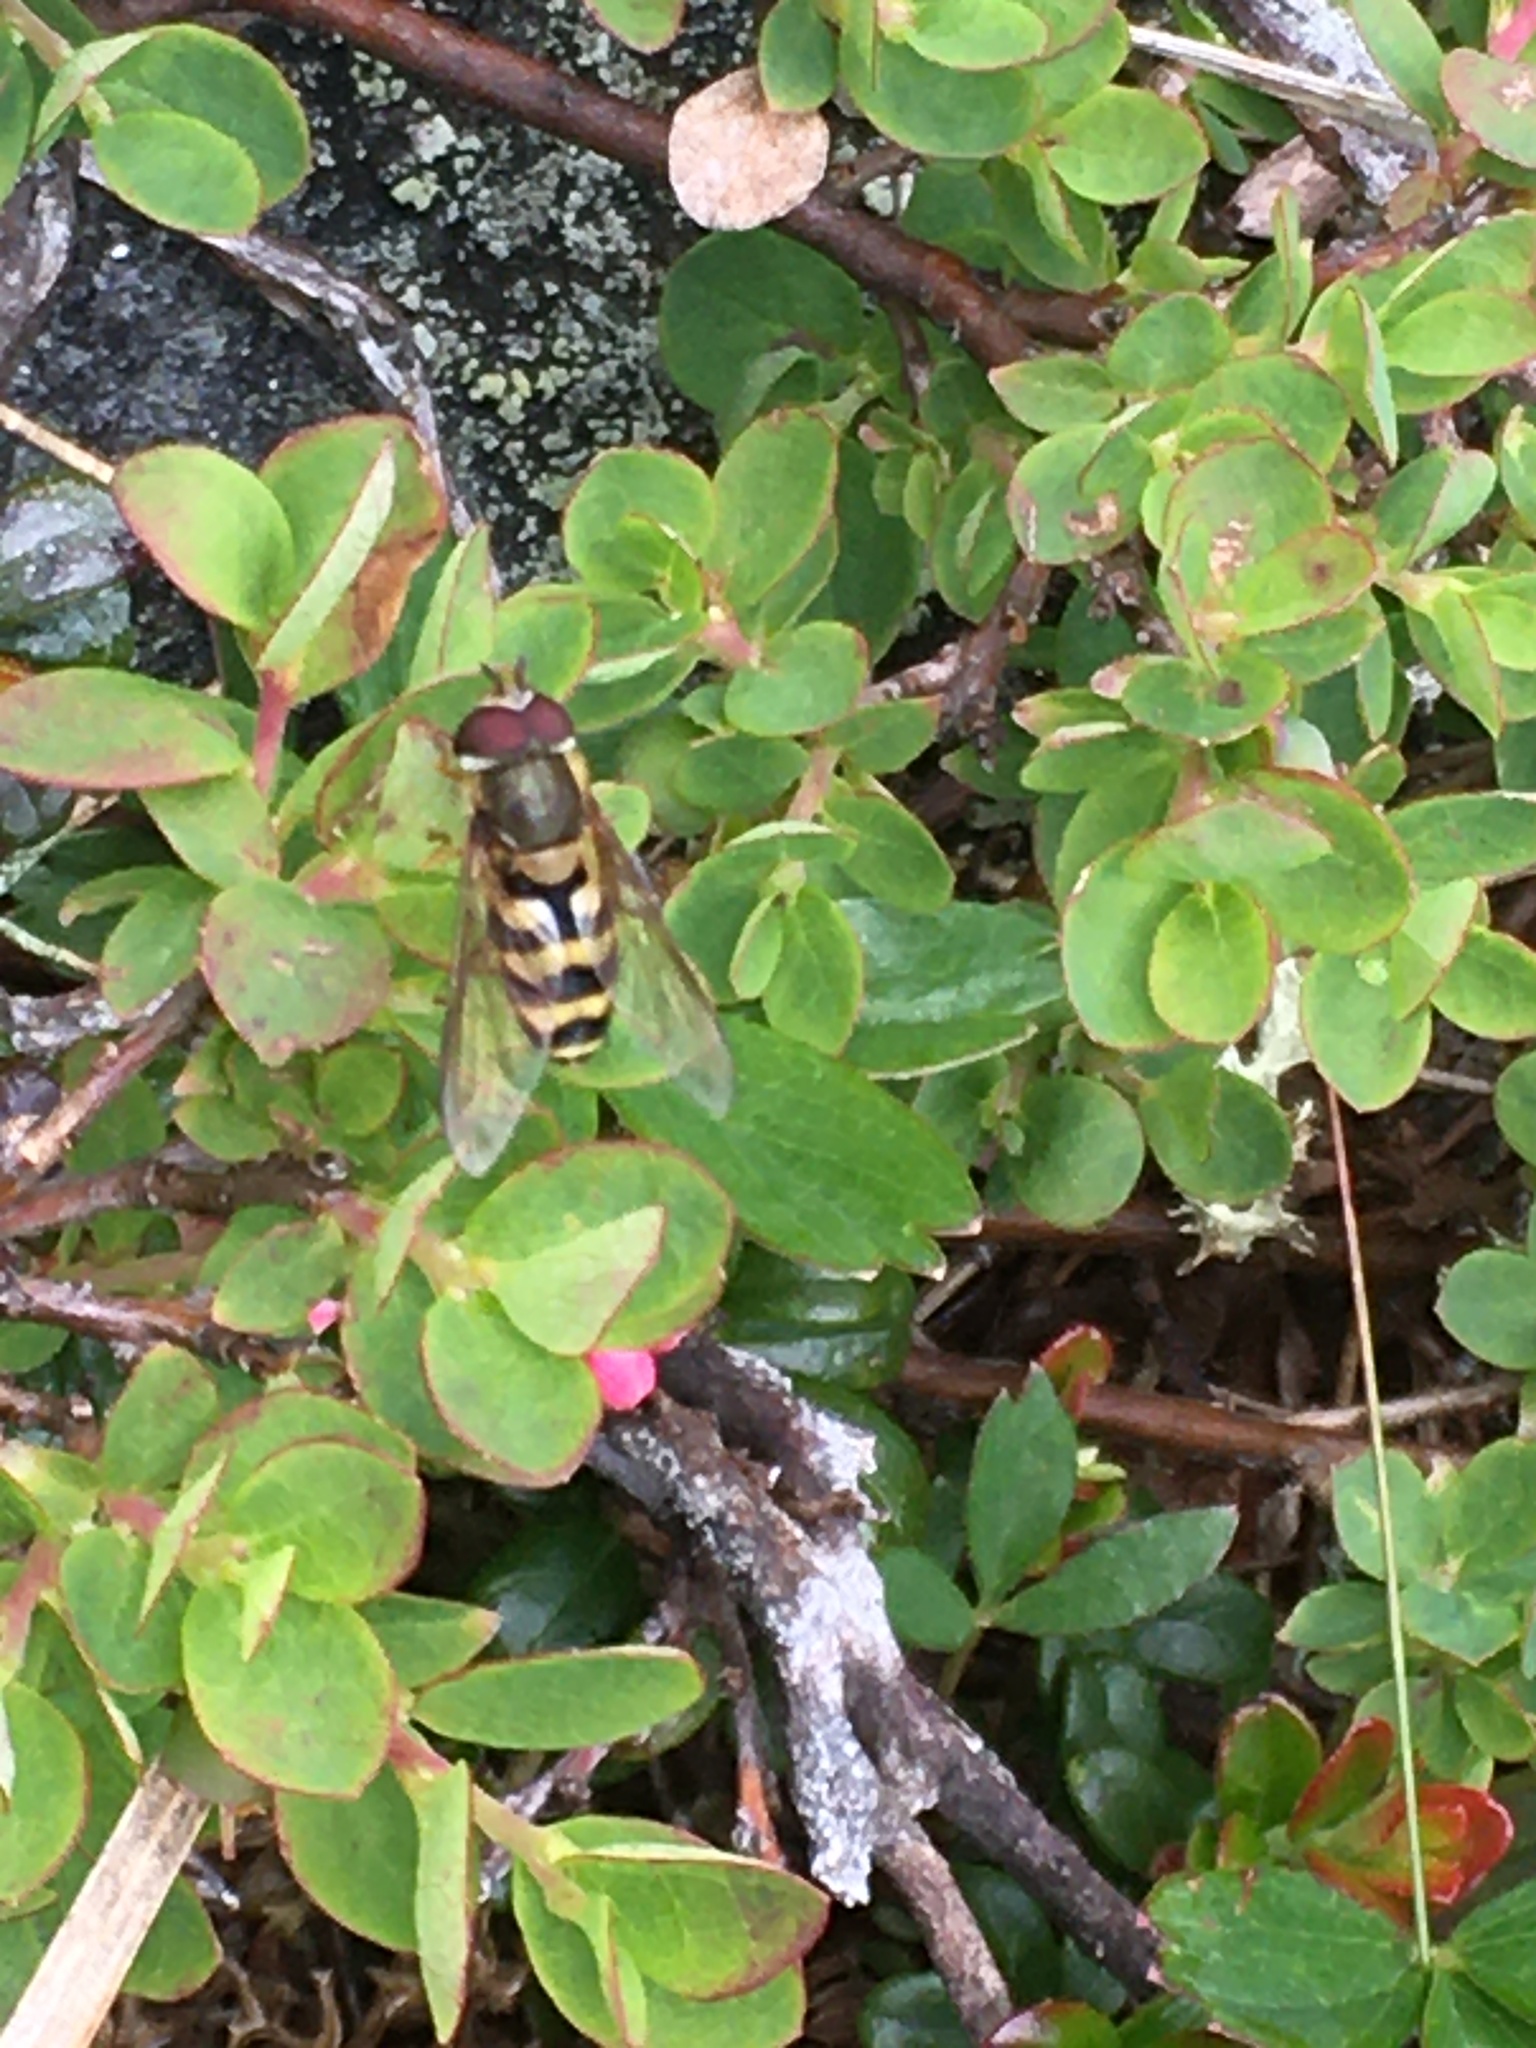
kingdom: Animalia
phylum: Arthropoda
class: Insecta
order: Diptera
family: Syrphidae
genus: Syrphus
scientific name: Syrphus
